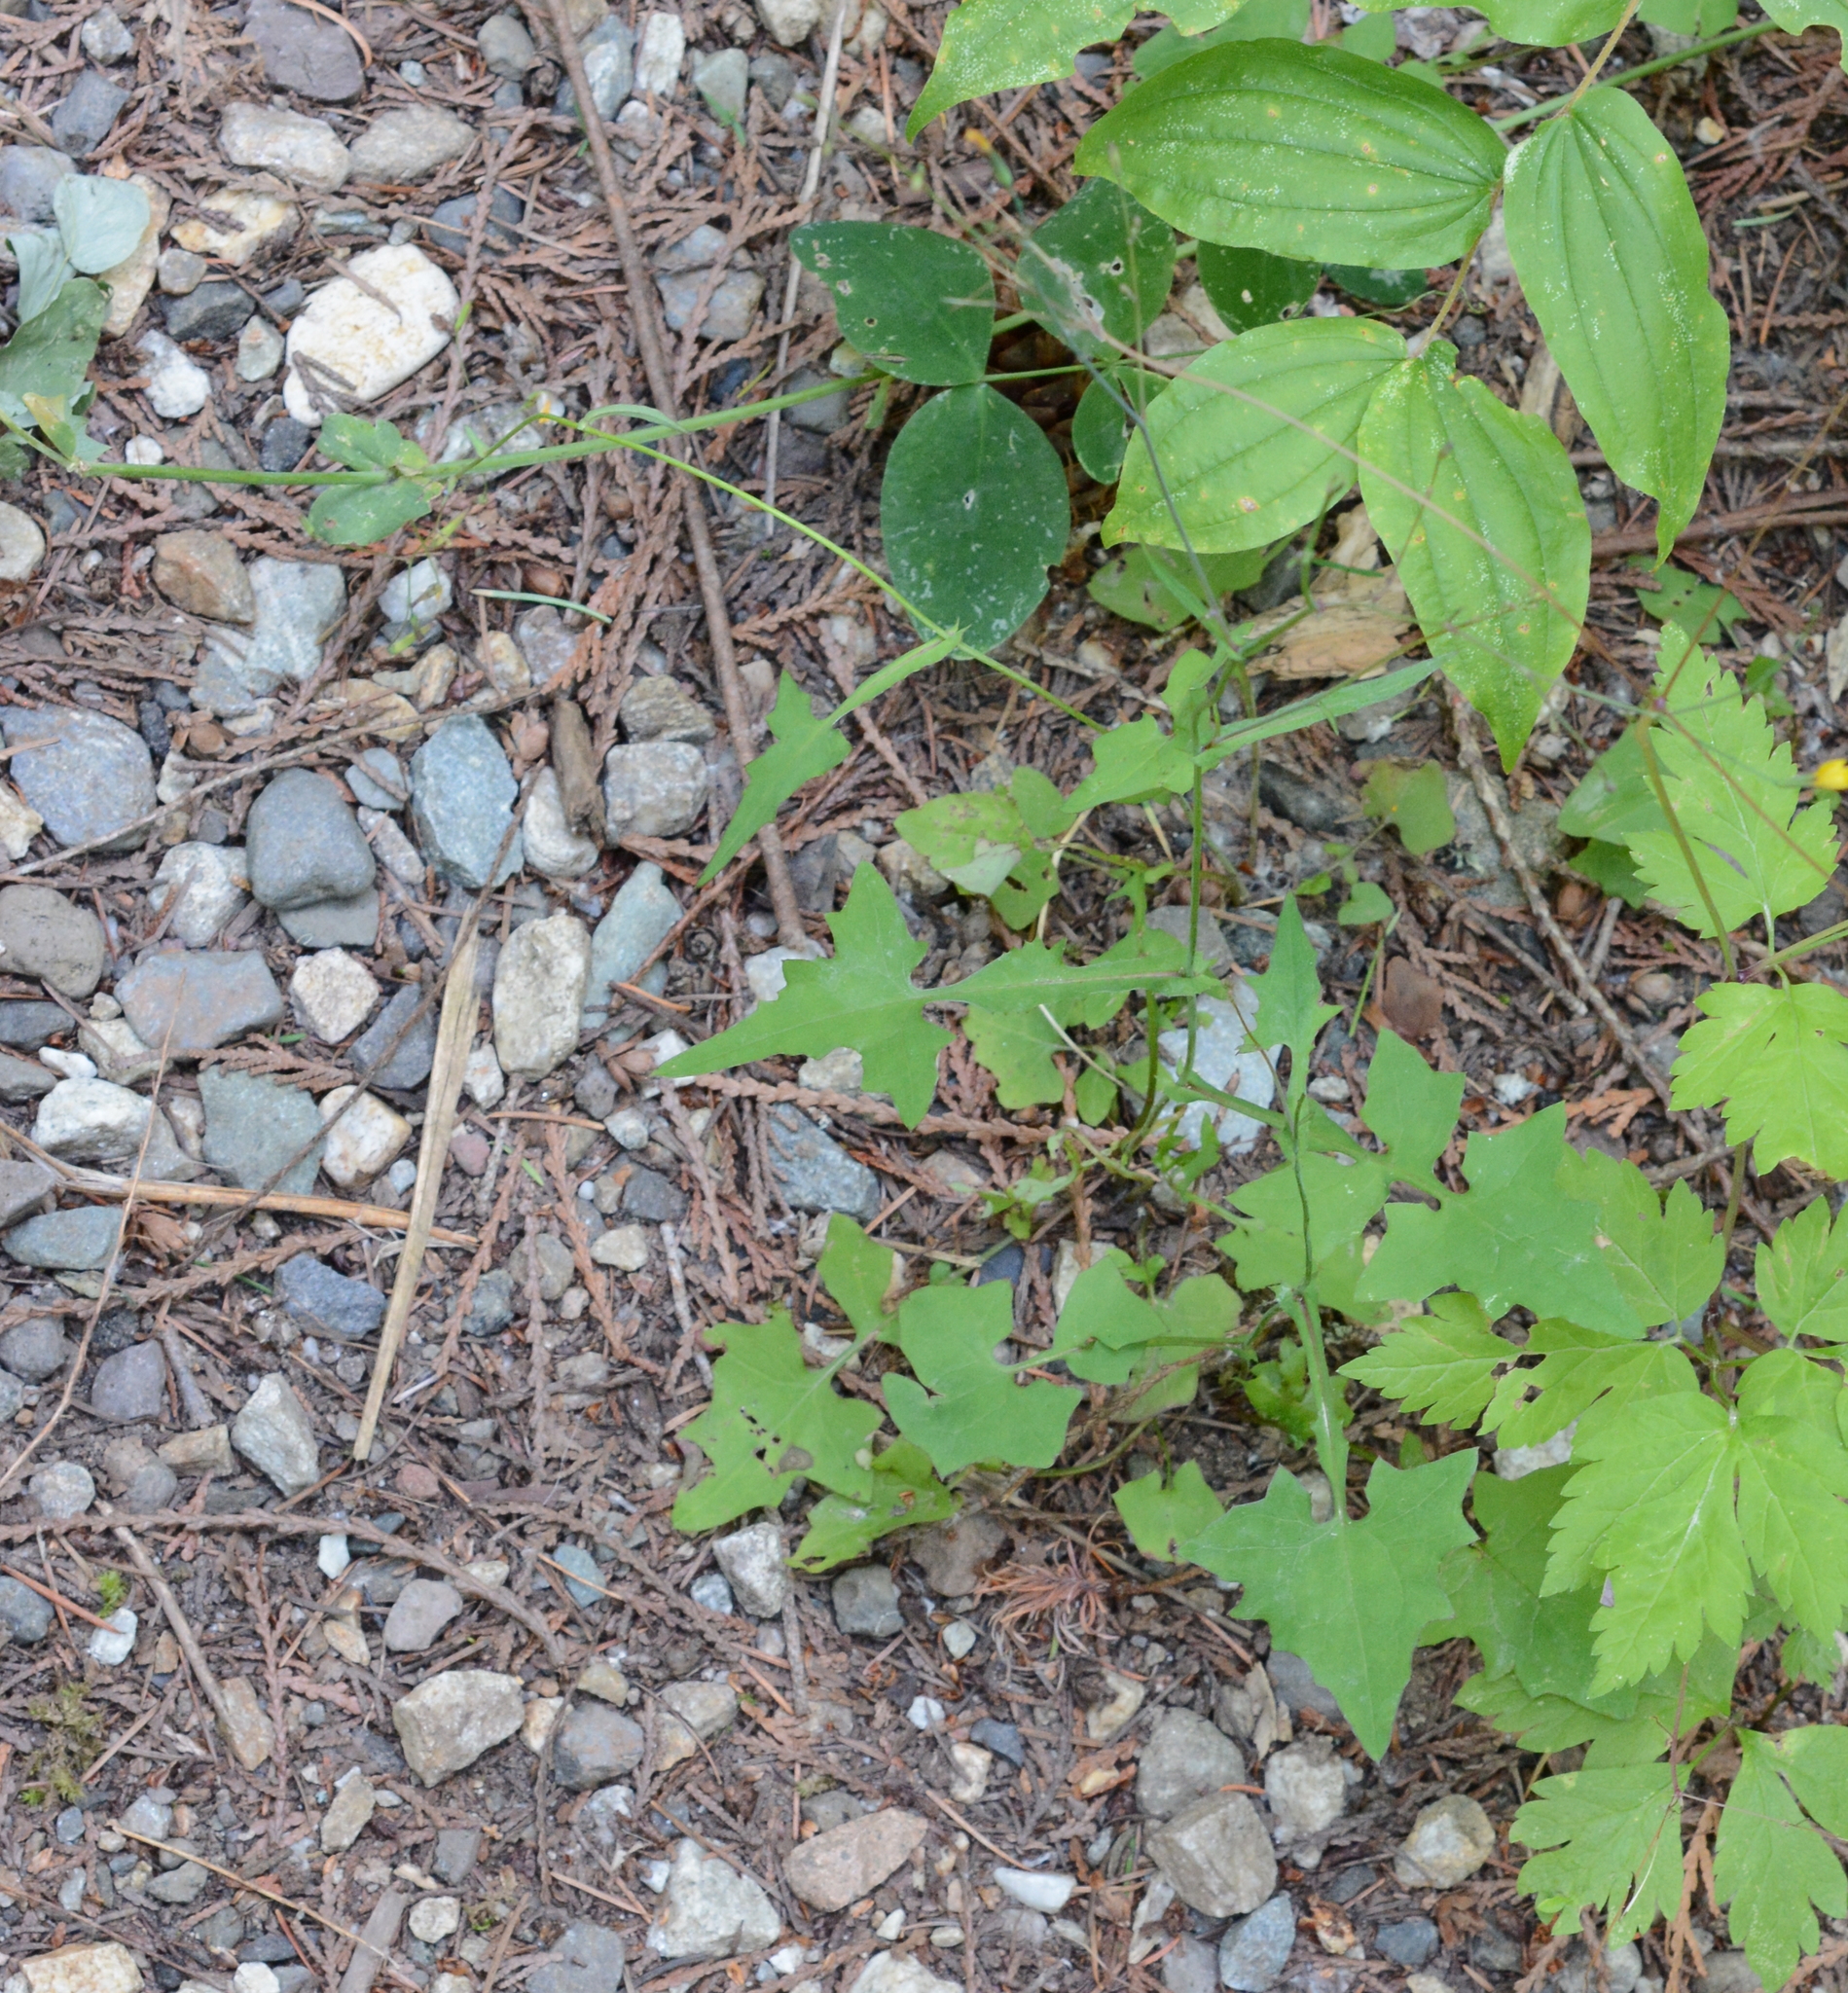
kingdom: Plantae
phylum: Tracheophyta
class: Magnoliopsida
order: Asterales
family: Asteraceae
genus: Mycelis
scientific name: Mycelis muralis
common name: Wall lettuce
